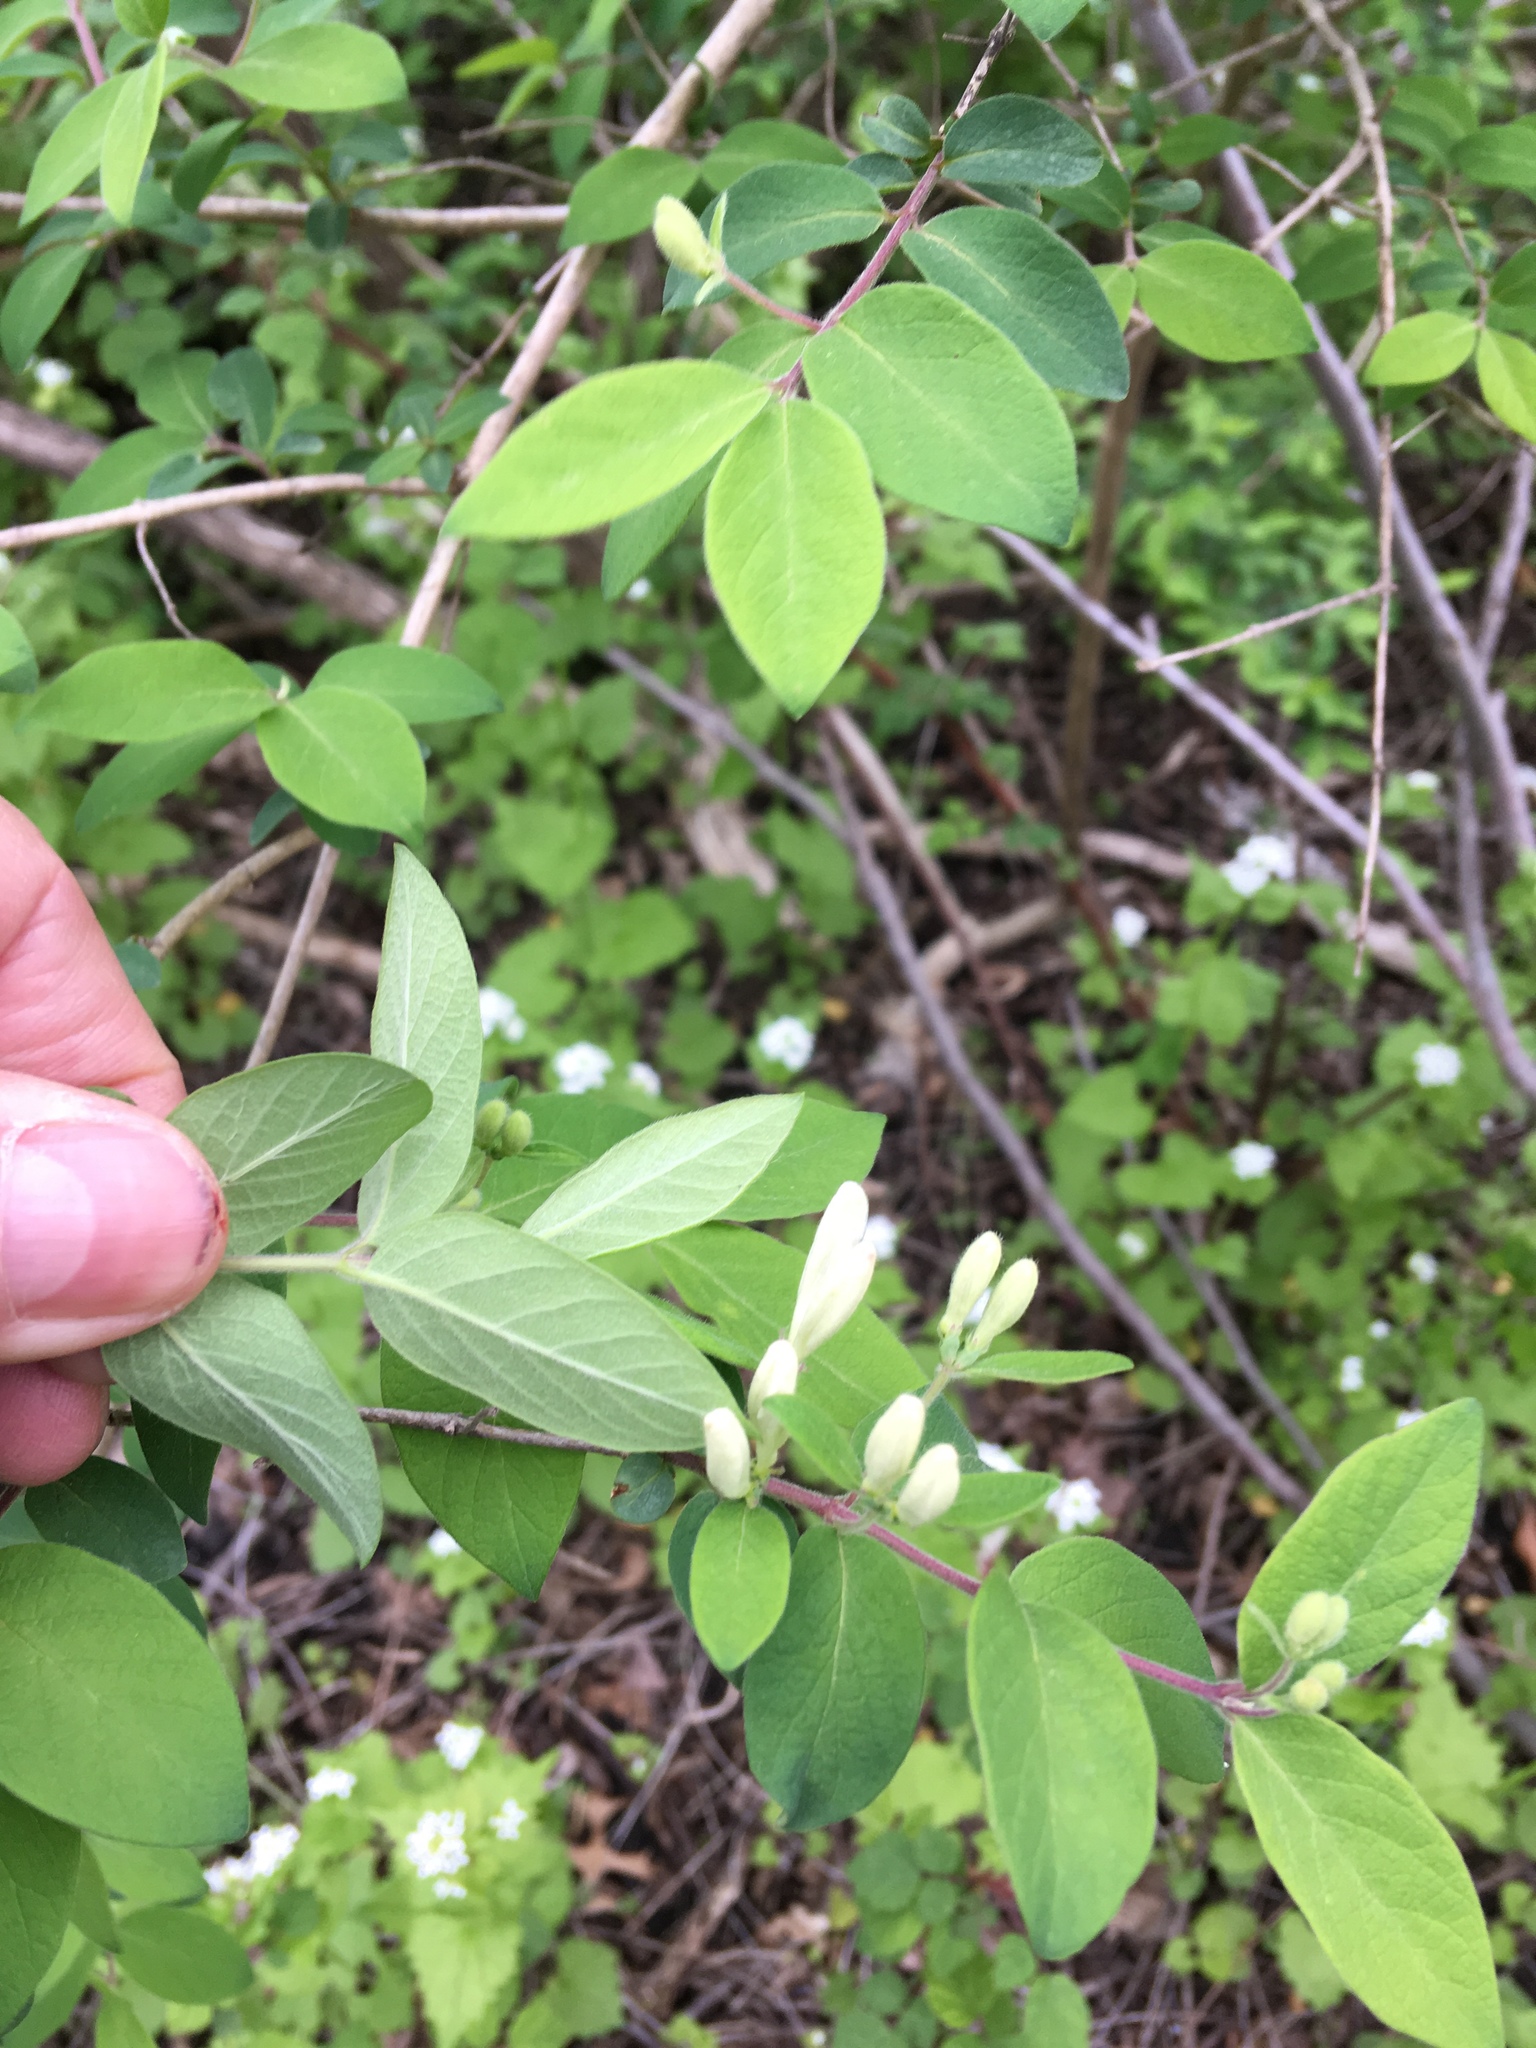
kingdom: Plantae
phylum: Tracheophyta
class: Magnoliopsida
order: Dipsacales
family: Caprifoliaceae
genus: Lonicera
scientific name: Lonicera morrowii
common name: Morrow's honeysuckle
